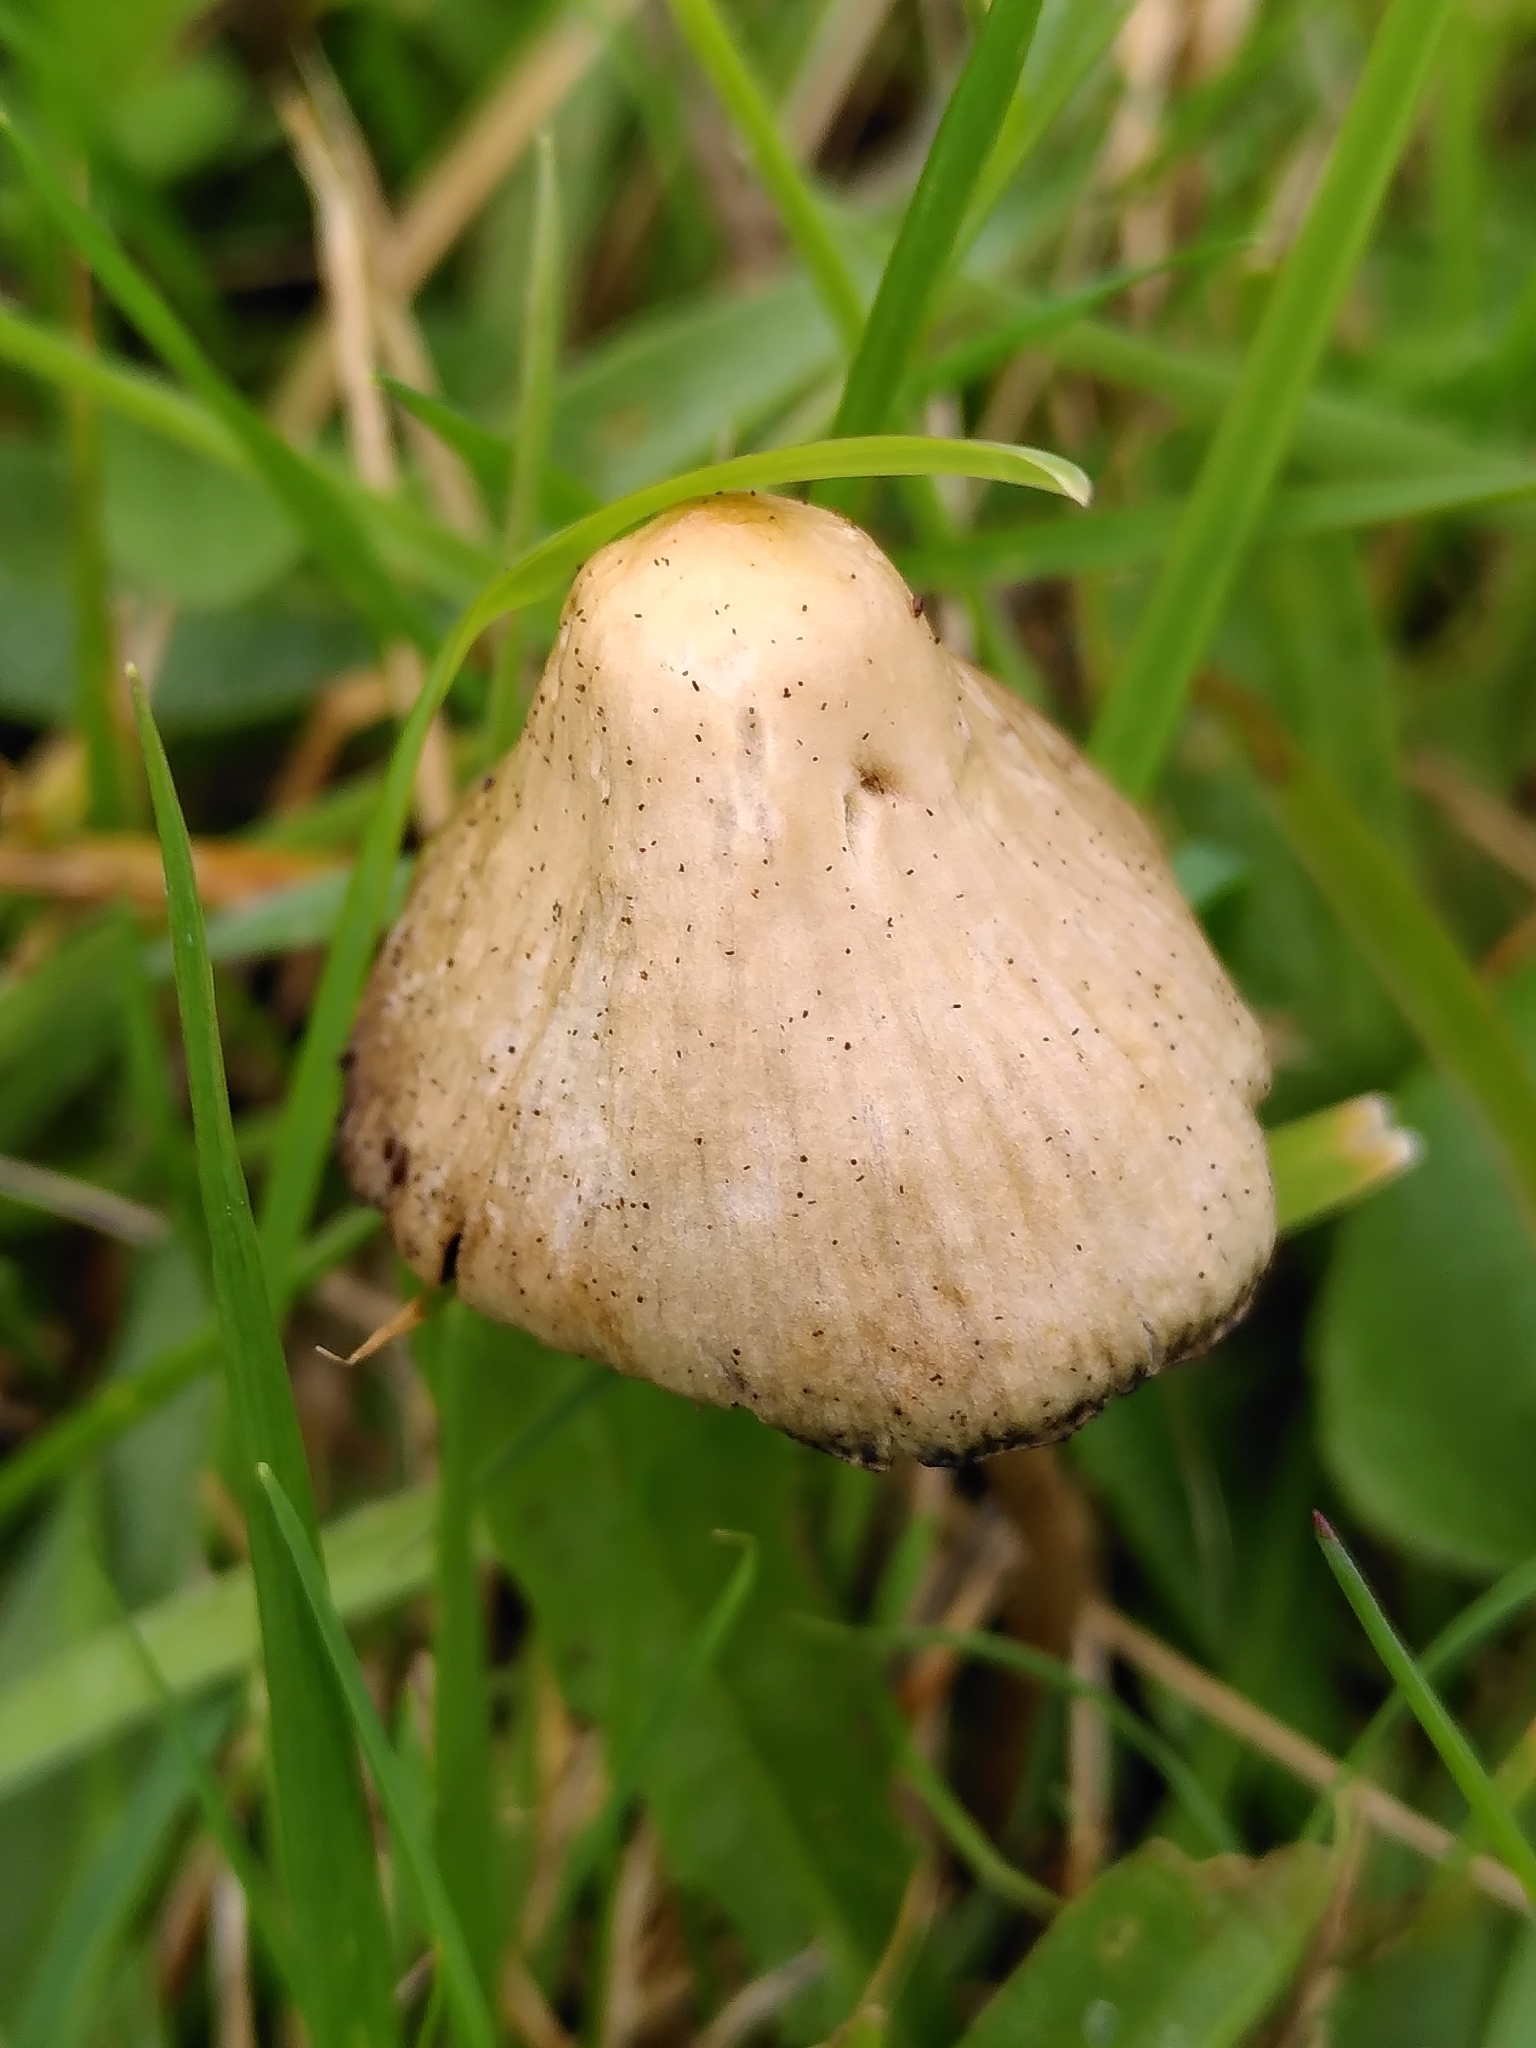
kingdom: Fungi
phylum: Basidiomycota
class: Agaricomycetes
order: Agaricales
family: Hymenogastraceae
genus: Psilocybe
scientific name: Psilocybe semilanceata
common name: Liberty cap
